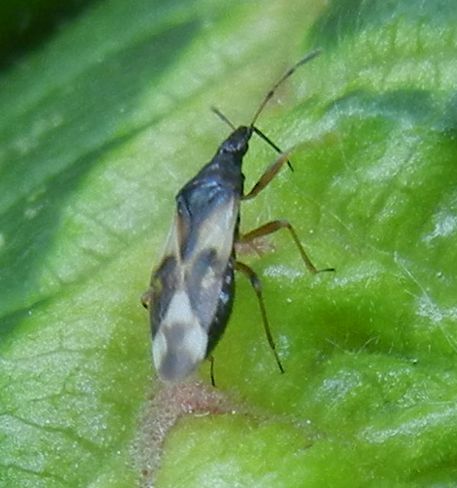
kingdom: Animalia
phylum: Arthropoda
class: Insecta
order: Hemiptera
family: Anthocoridae
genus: Anthocoris
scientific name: Anthocoris nemorum
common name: Minute pirate bug
